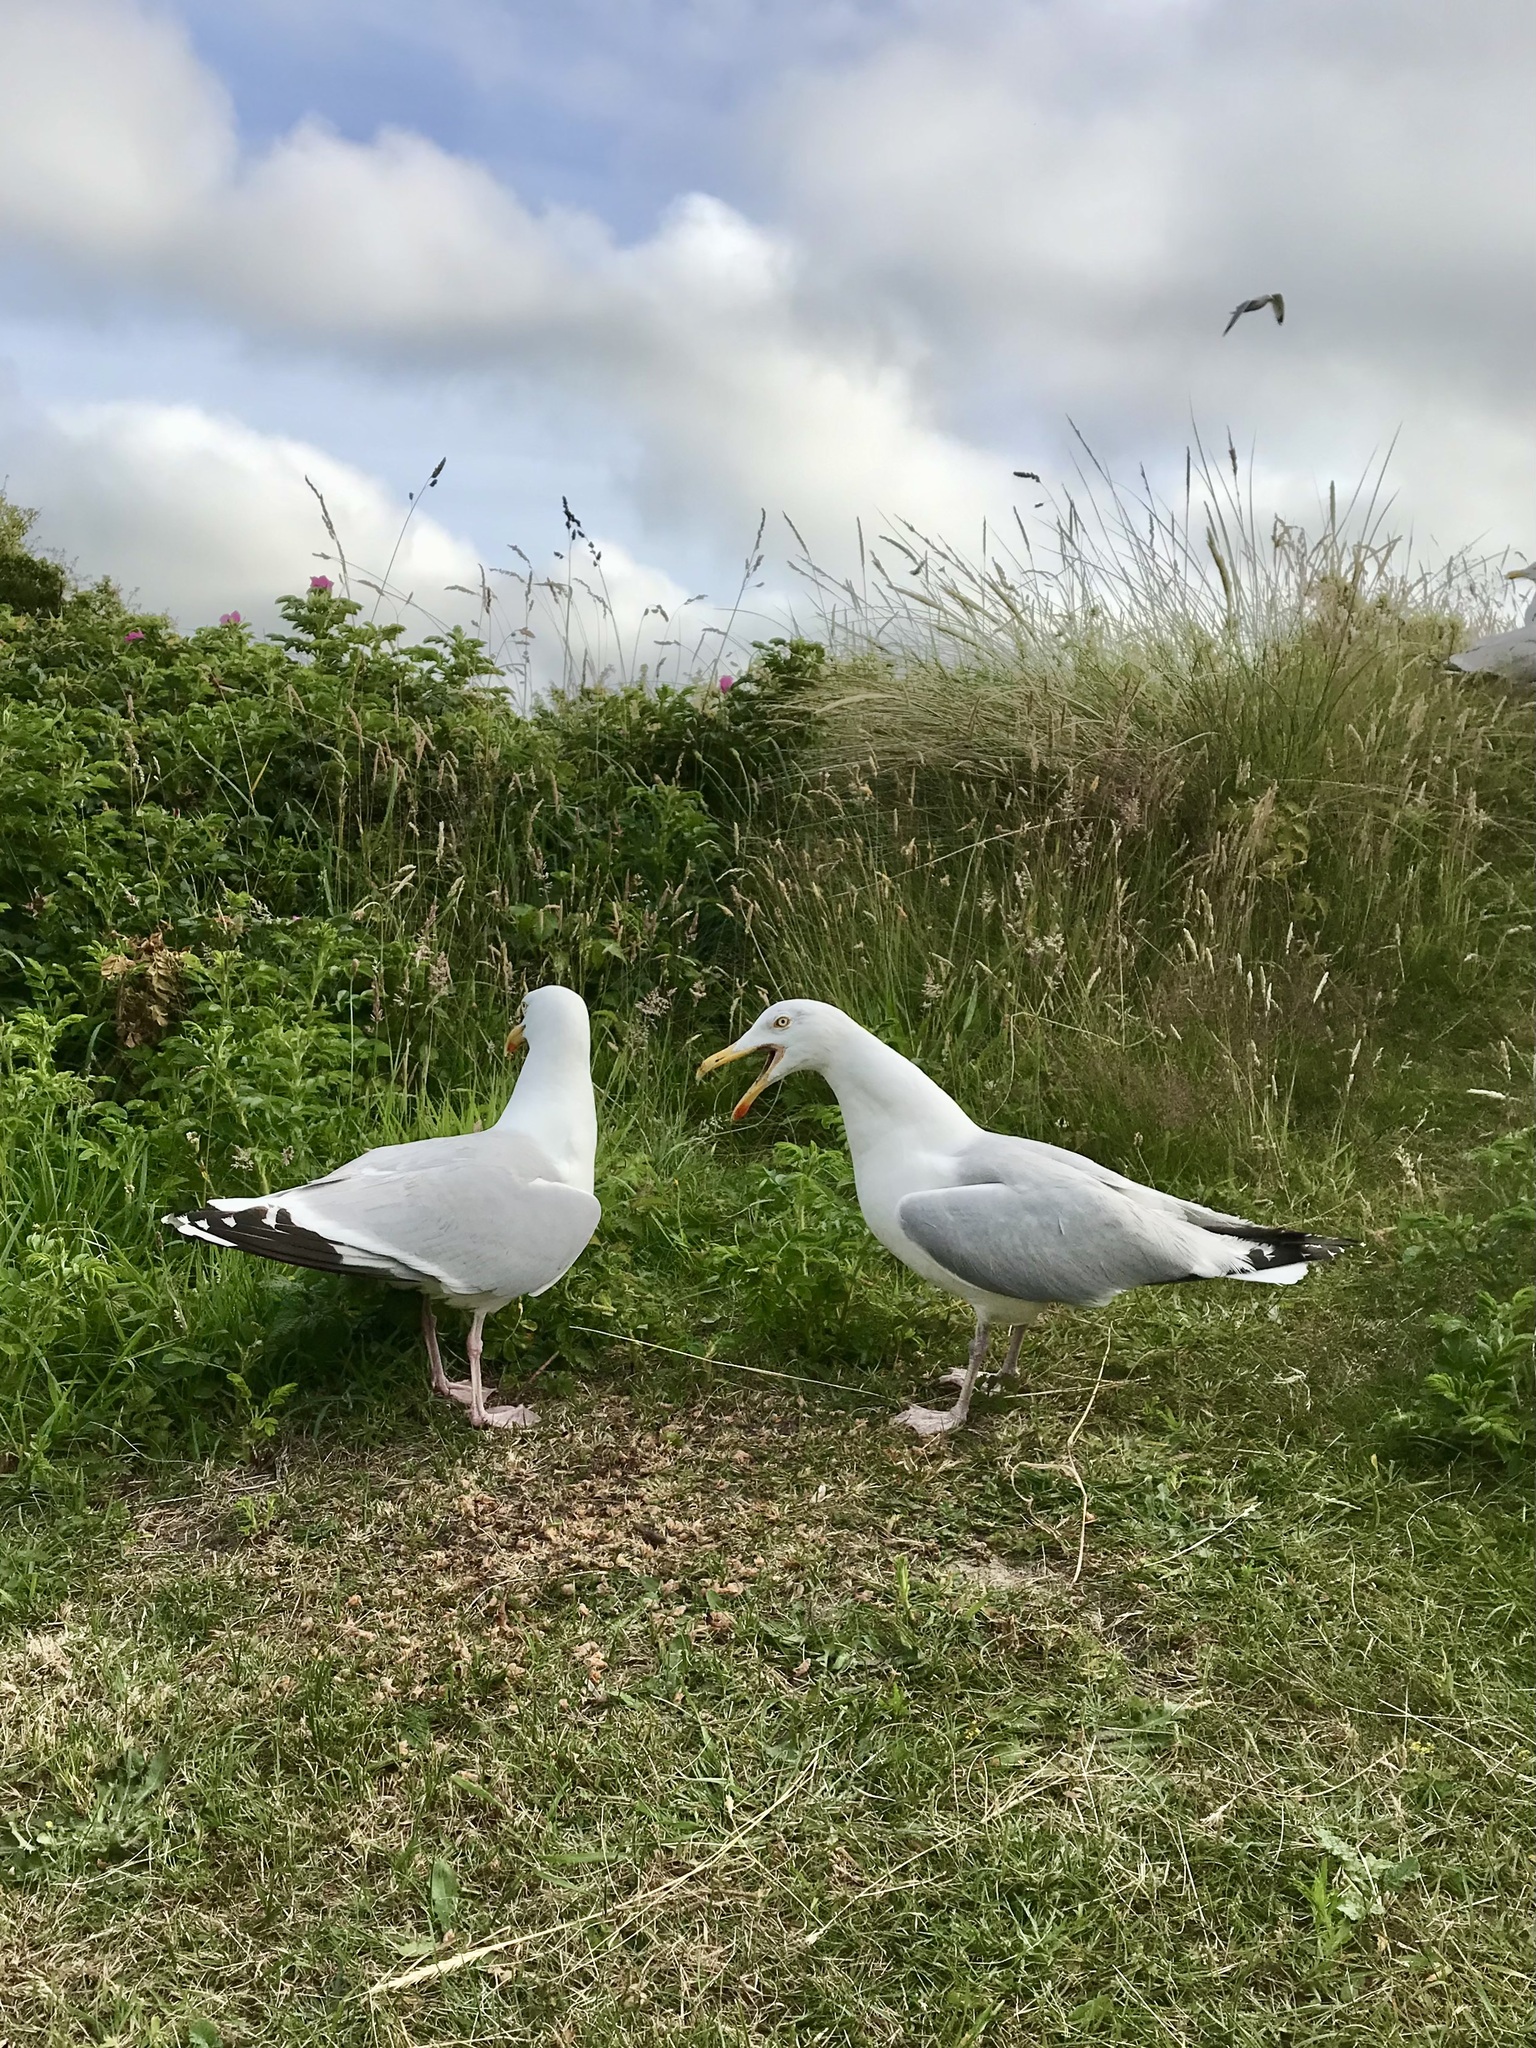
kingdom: Animalia
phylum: Chordata
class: Aves
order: Charadriiformes
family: Laridae
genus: Larus
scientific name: Larus argentatus
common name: Herring gull
